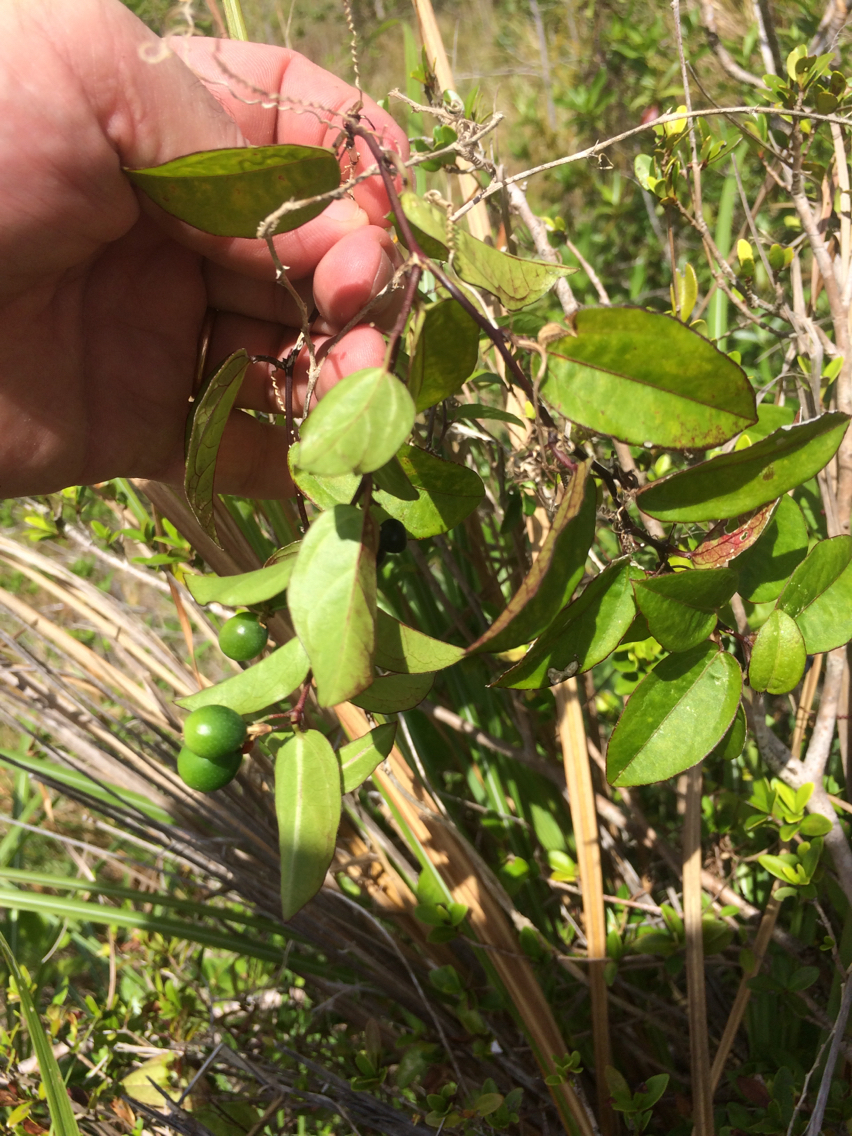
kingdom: Plantae
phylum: Tracheophyta
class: Magnoliopsida
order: Malpighiales
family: Passifloraceae
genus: Passiflora
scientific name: Passiflora pallida
